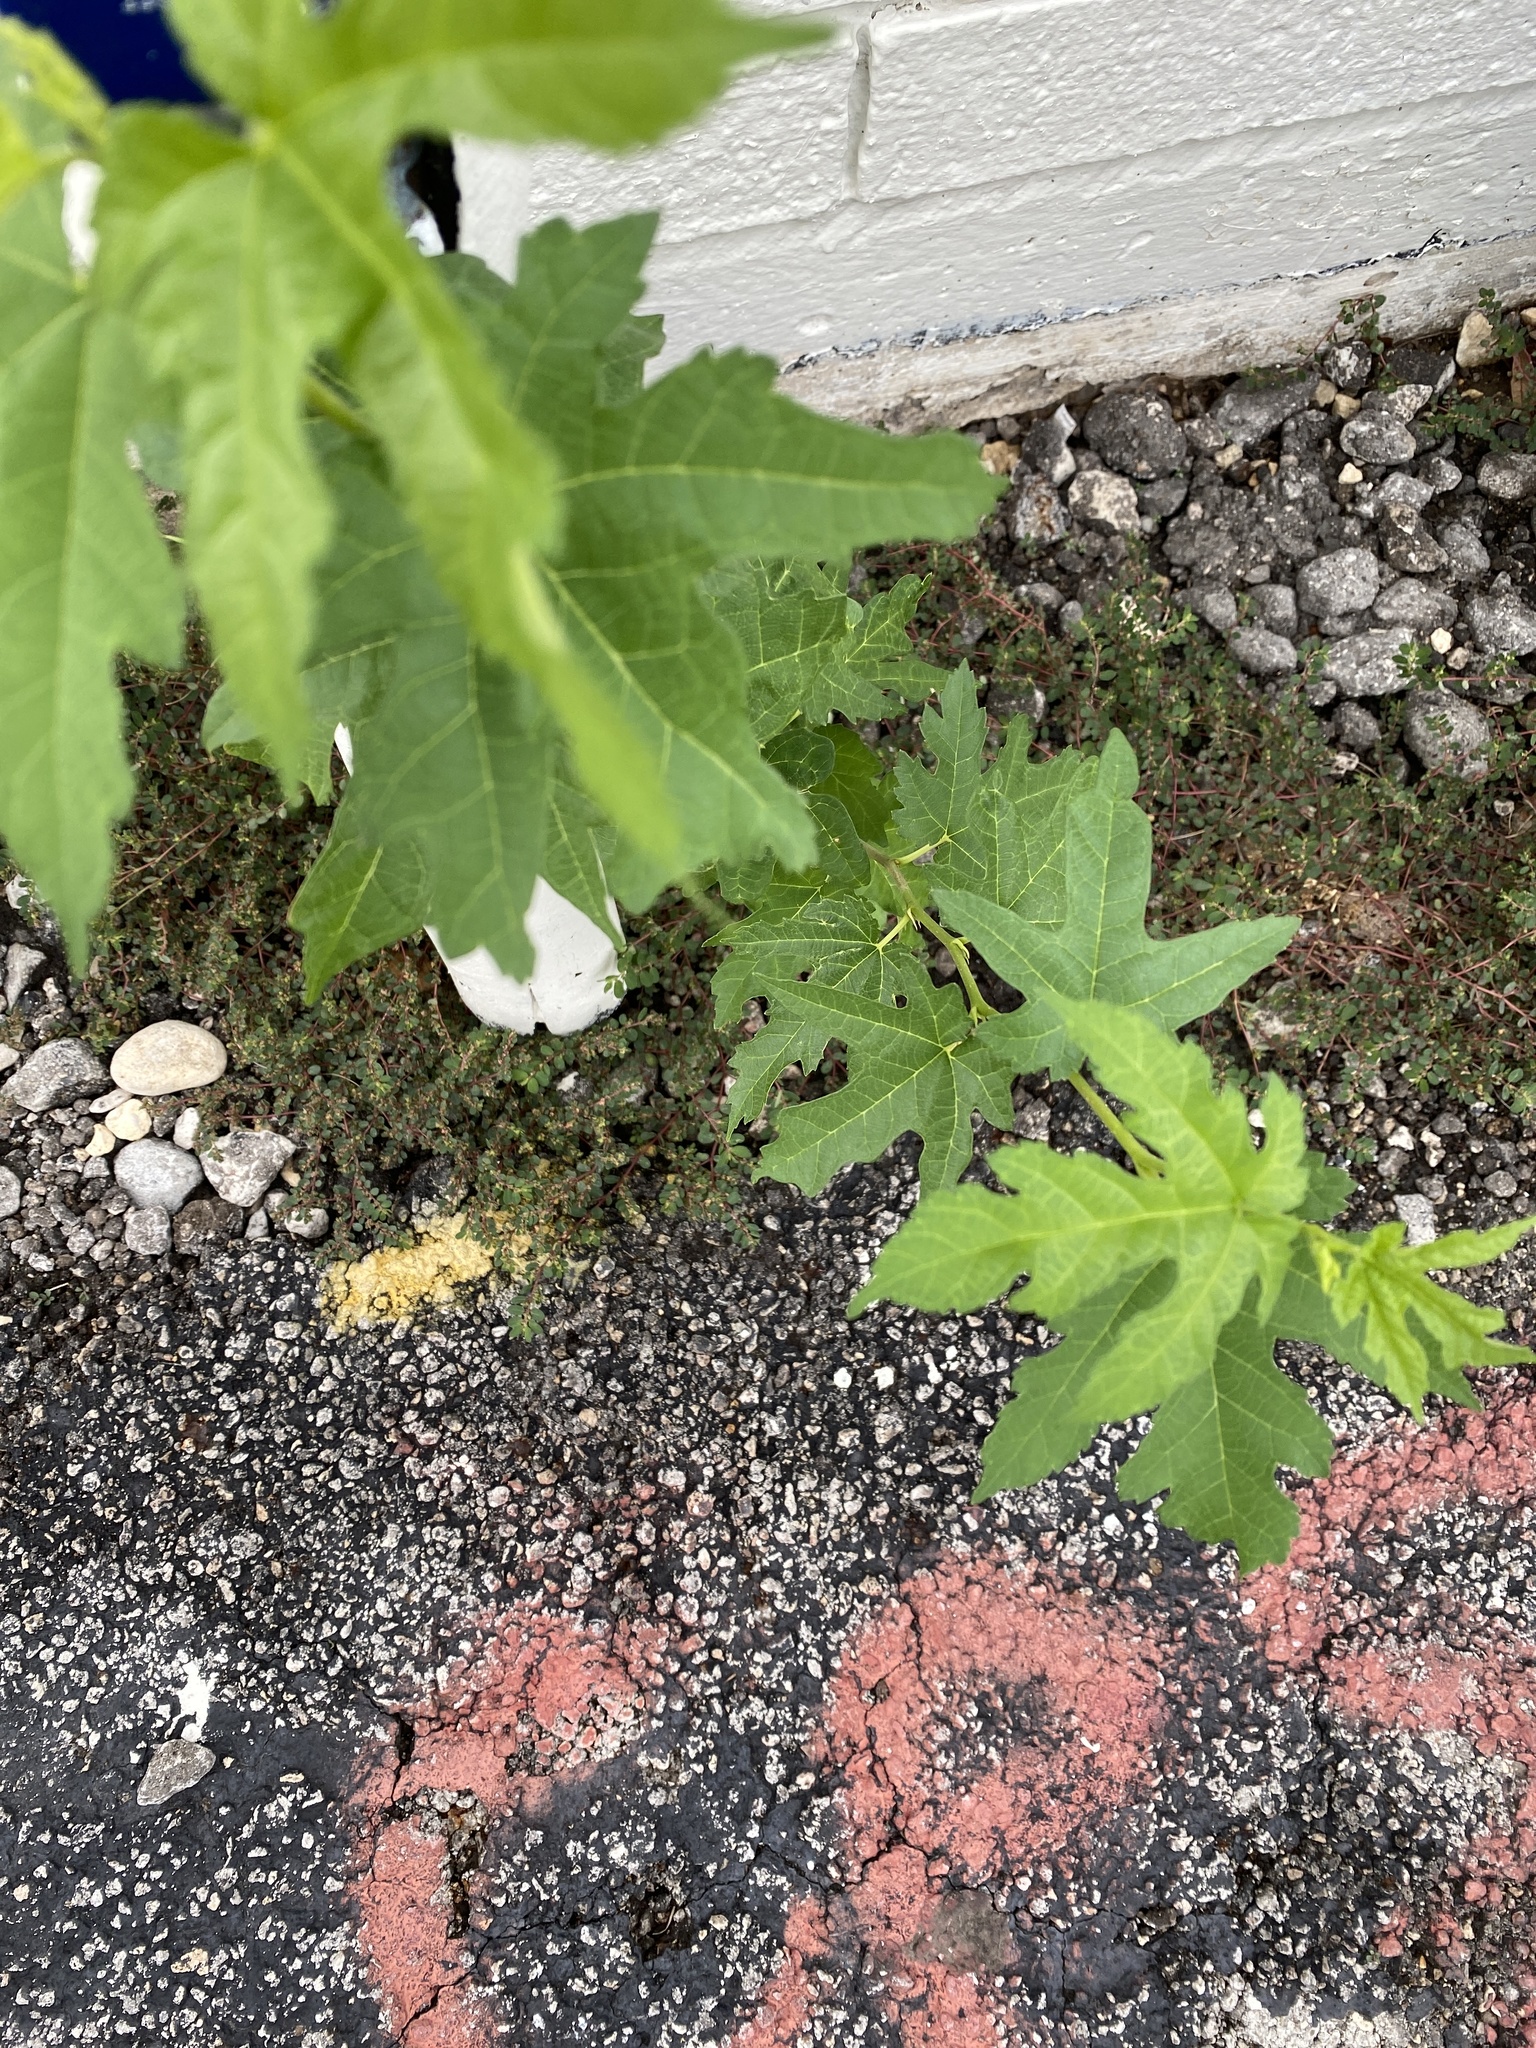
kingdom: Plantae
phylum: Tracheophyta
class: Magnoliopsida
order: Malvales
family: Malvaceae
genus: Modiola
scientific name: Modiola caroliniana
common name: Carolina bristlemallow
